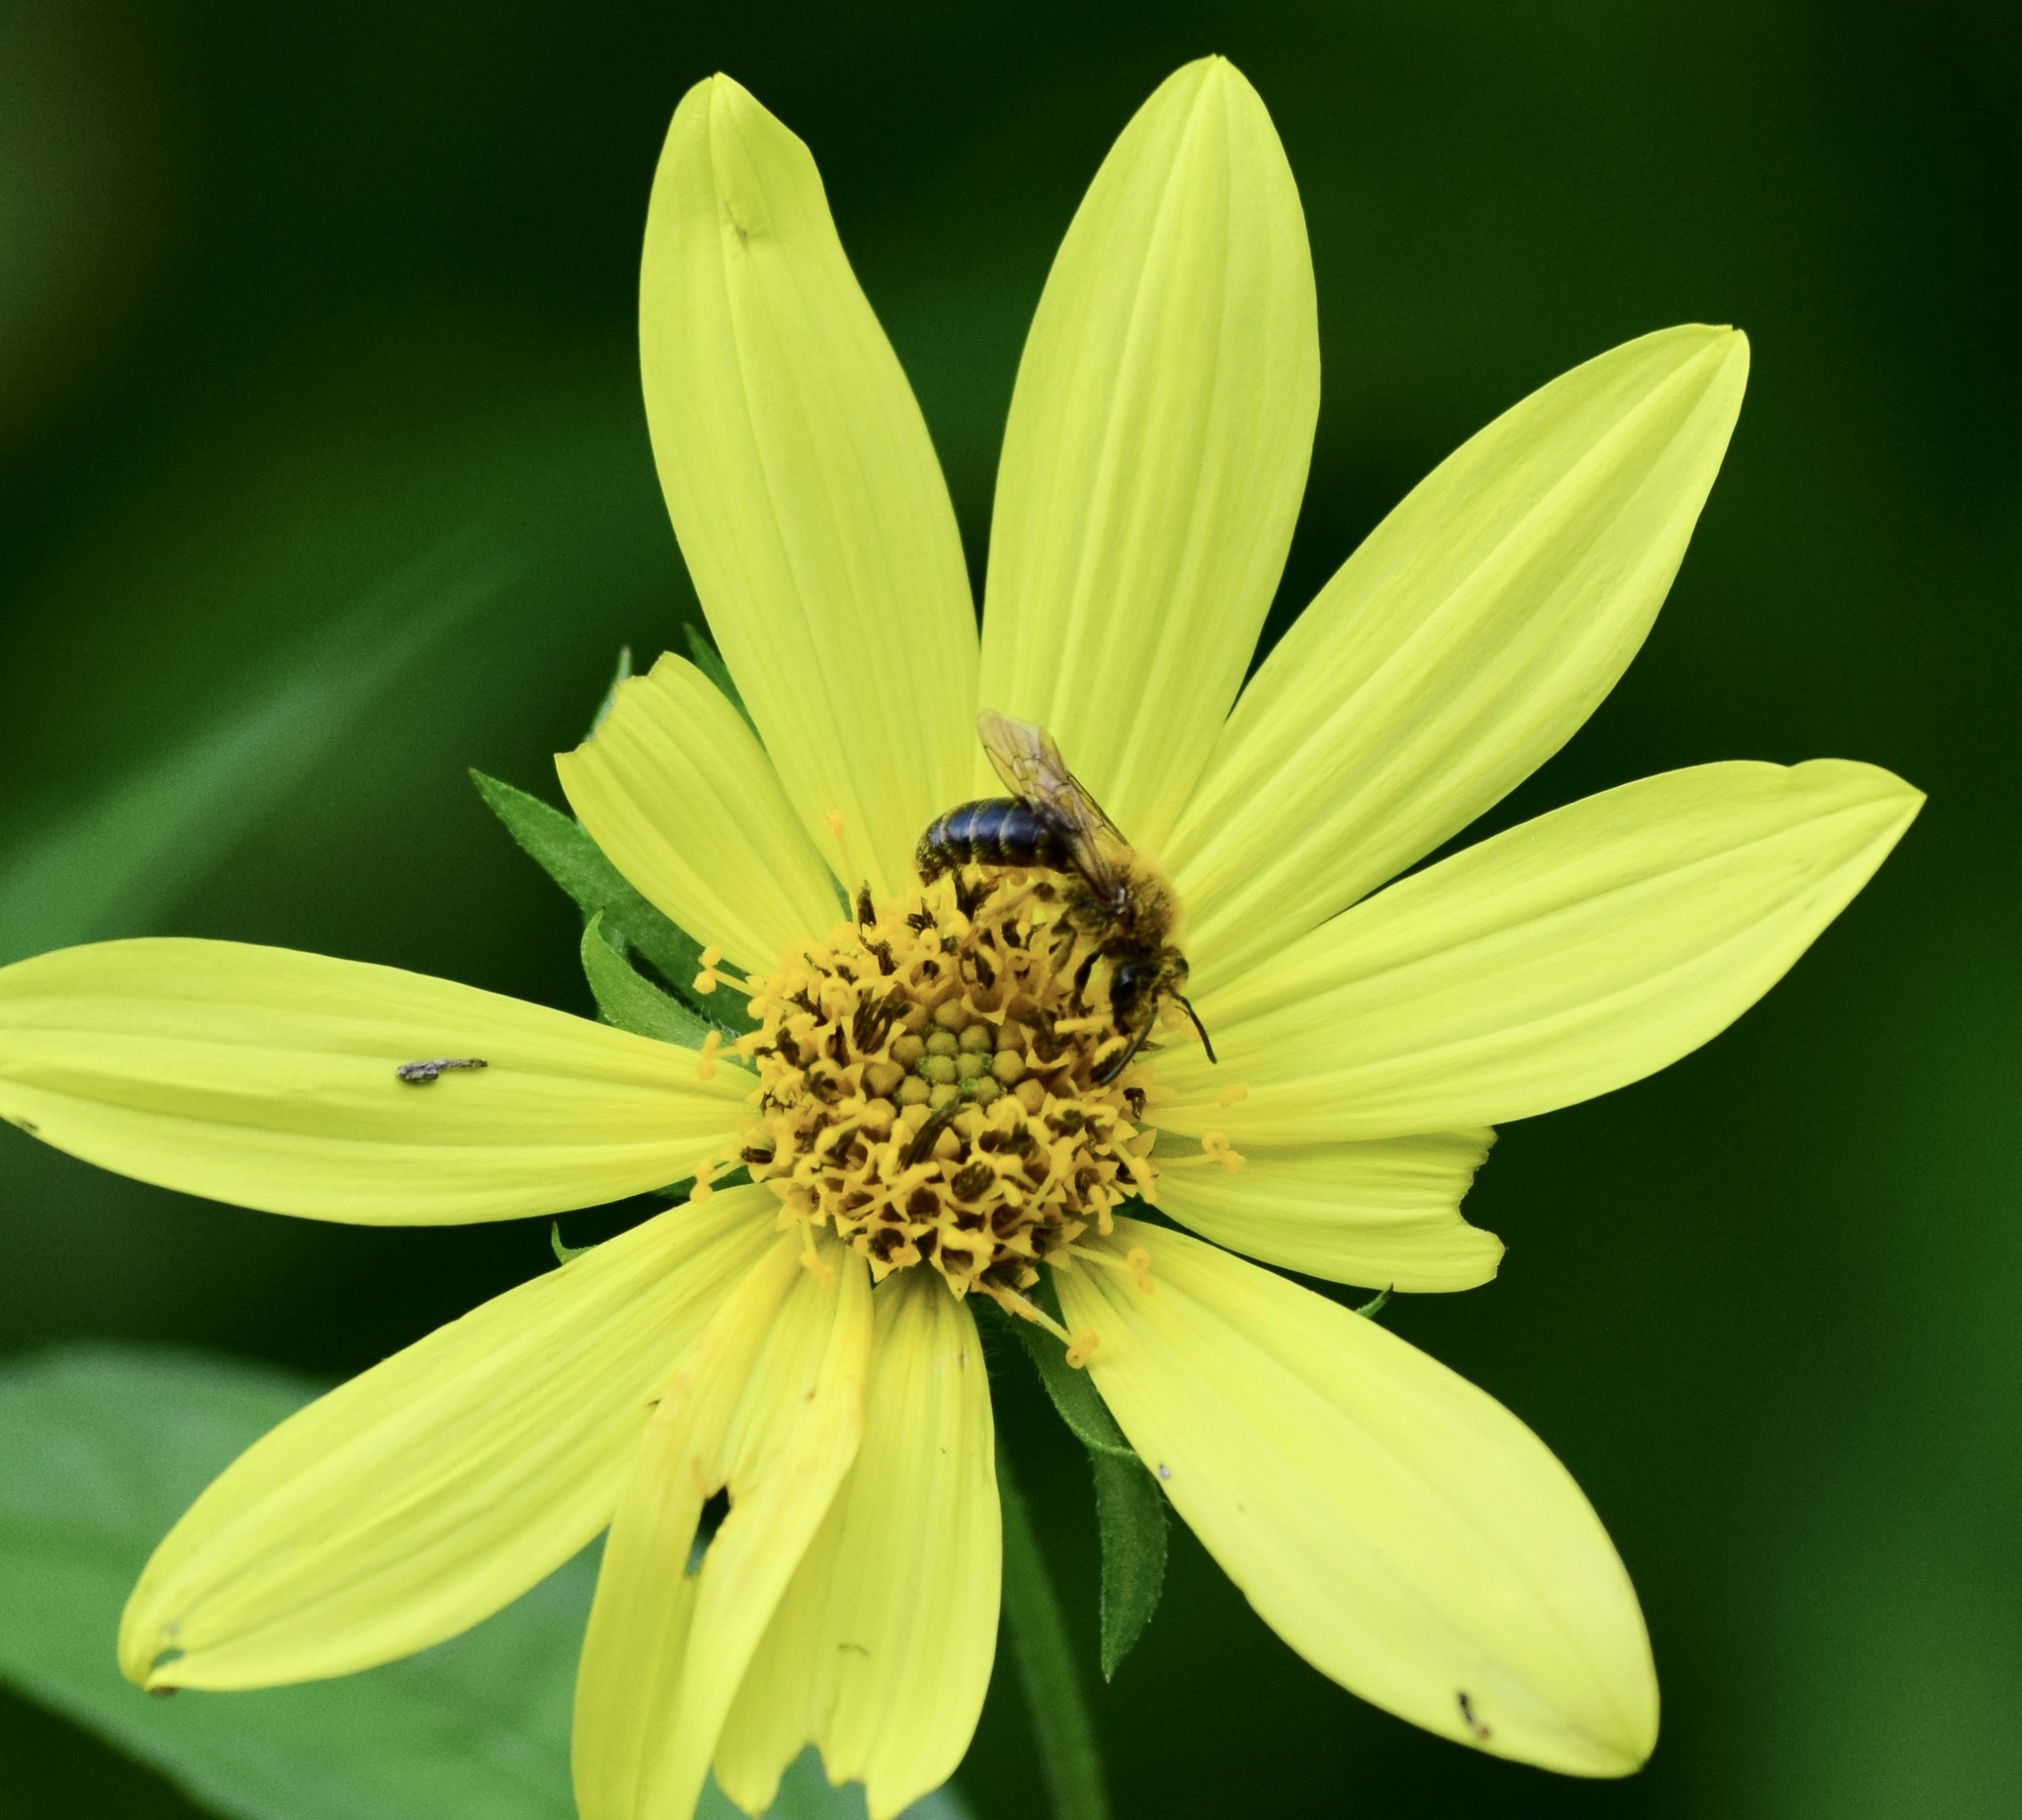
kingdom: Animalia
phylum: Arthropoda
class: Insecta
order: Hymenoptera
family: Andrenidae
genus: Andrena
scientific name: Andrena helianthi
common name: Sunflower mining bee
